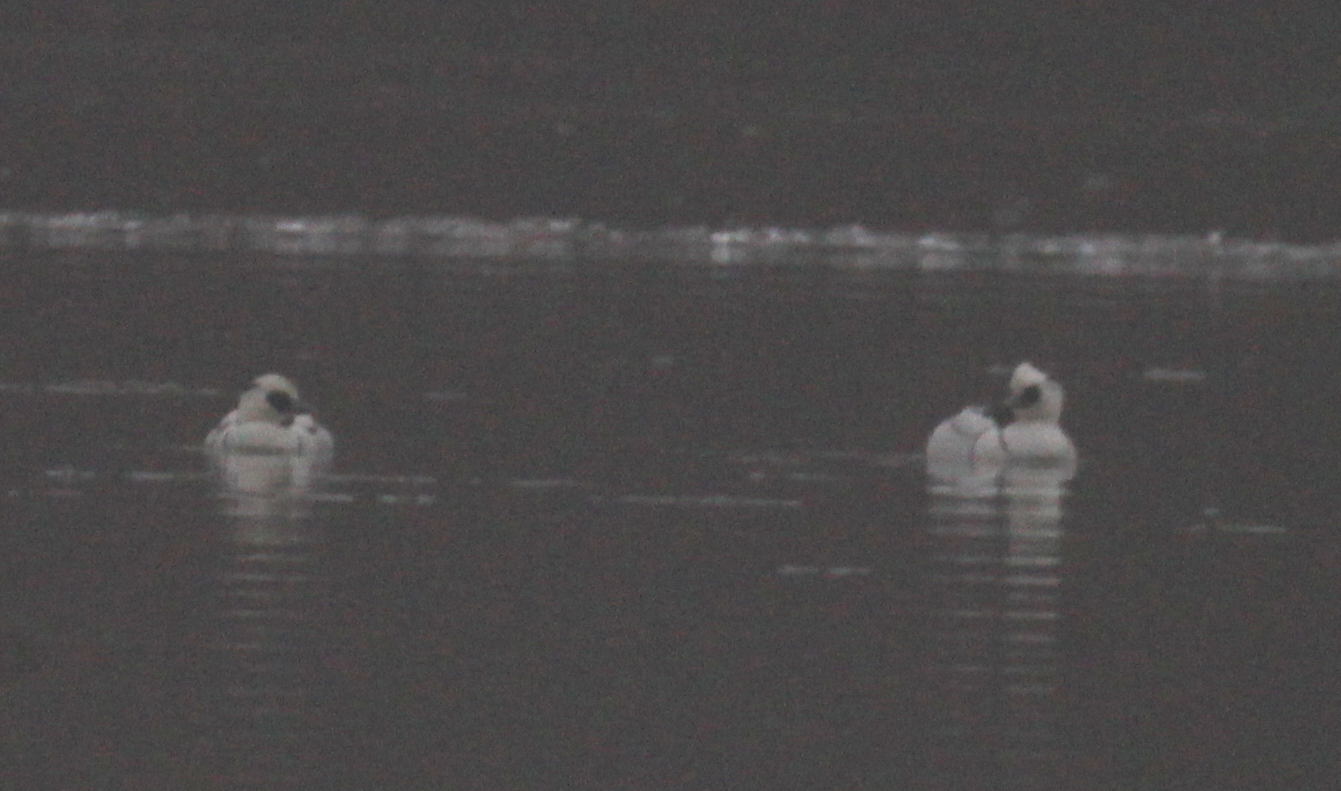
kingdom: Animalia
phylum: Chordata
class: Aves
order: Anseriformes
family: Anatidae
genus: Mergellus
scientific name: Mergellus albellus
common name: Smew
